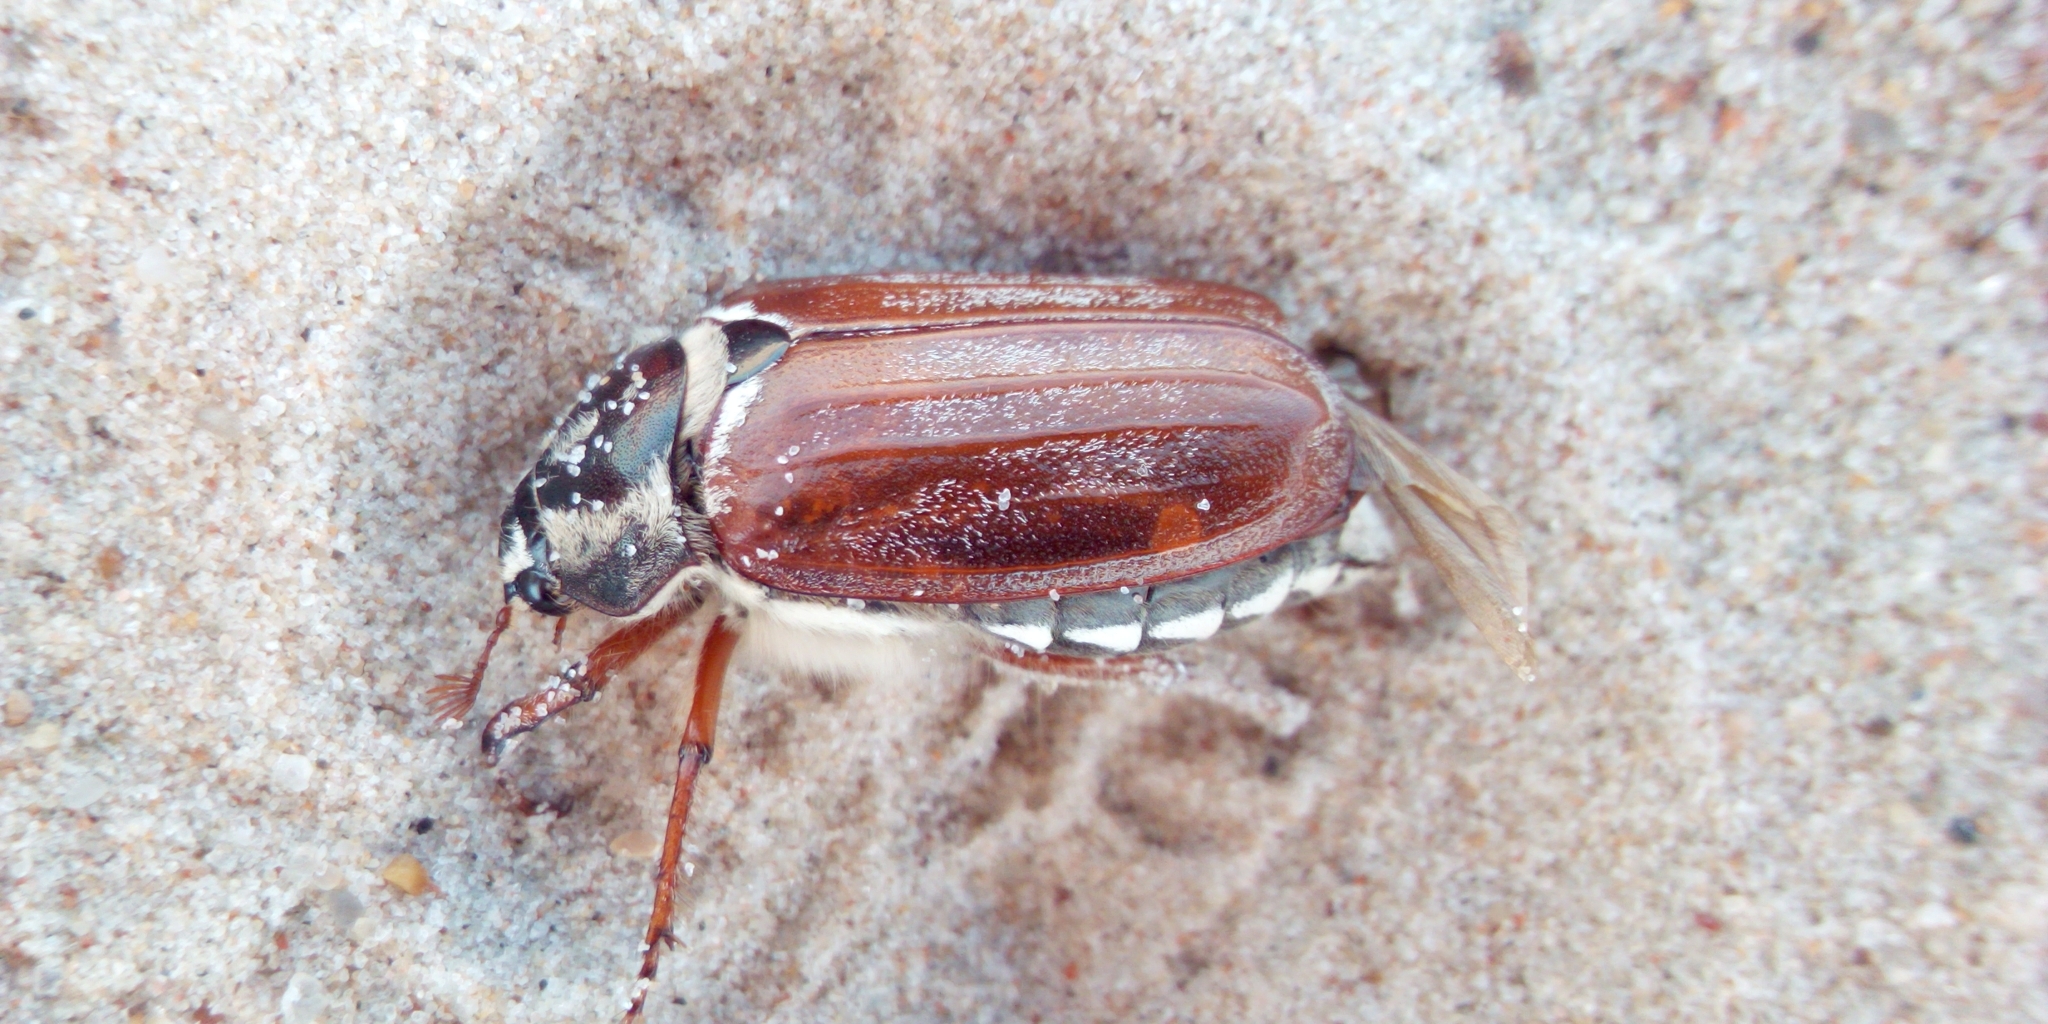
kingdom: Animalia
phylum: Arthropoda
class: Insecta
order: Coleoptera
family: Scarabaeidae
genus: Melolontha
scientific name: Melolontha melolontha
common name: Cockchafer maybeetle
